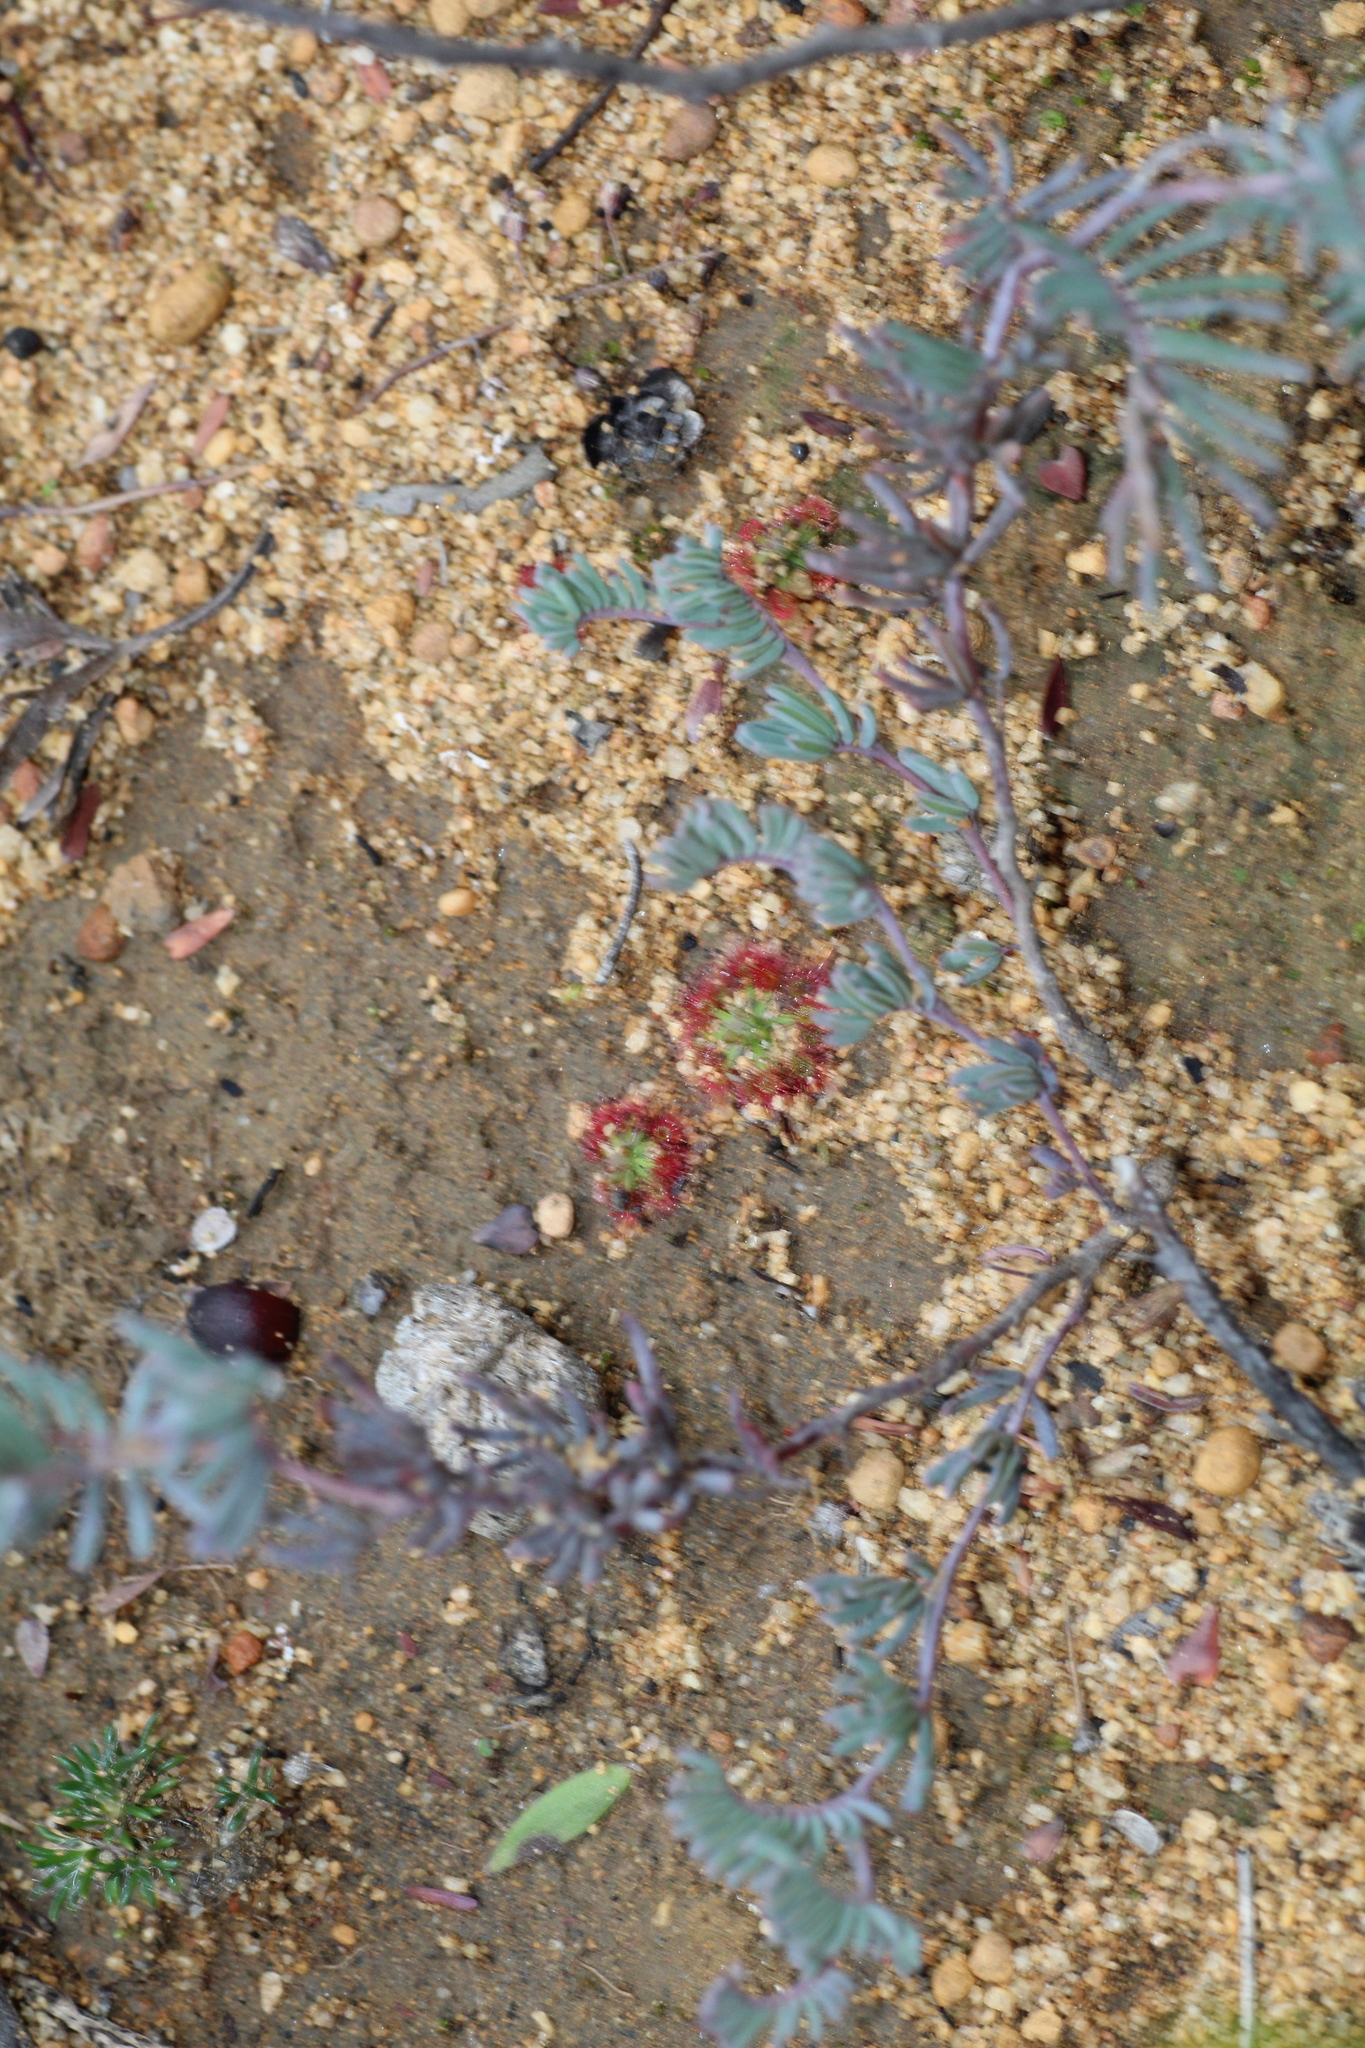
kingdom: Plantae
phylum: Tracheophyta
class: Magnoliopsida
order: Caryophyllales
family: Droseraceae
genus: Drosera
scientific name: Drosera spilos
